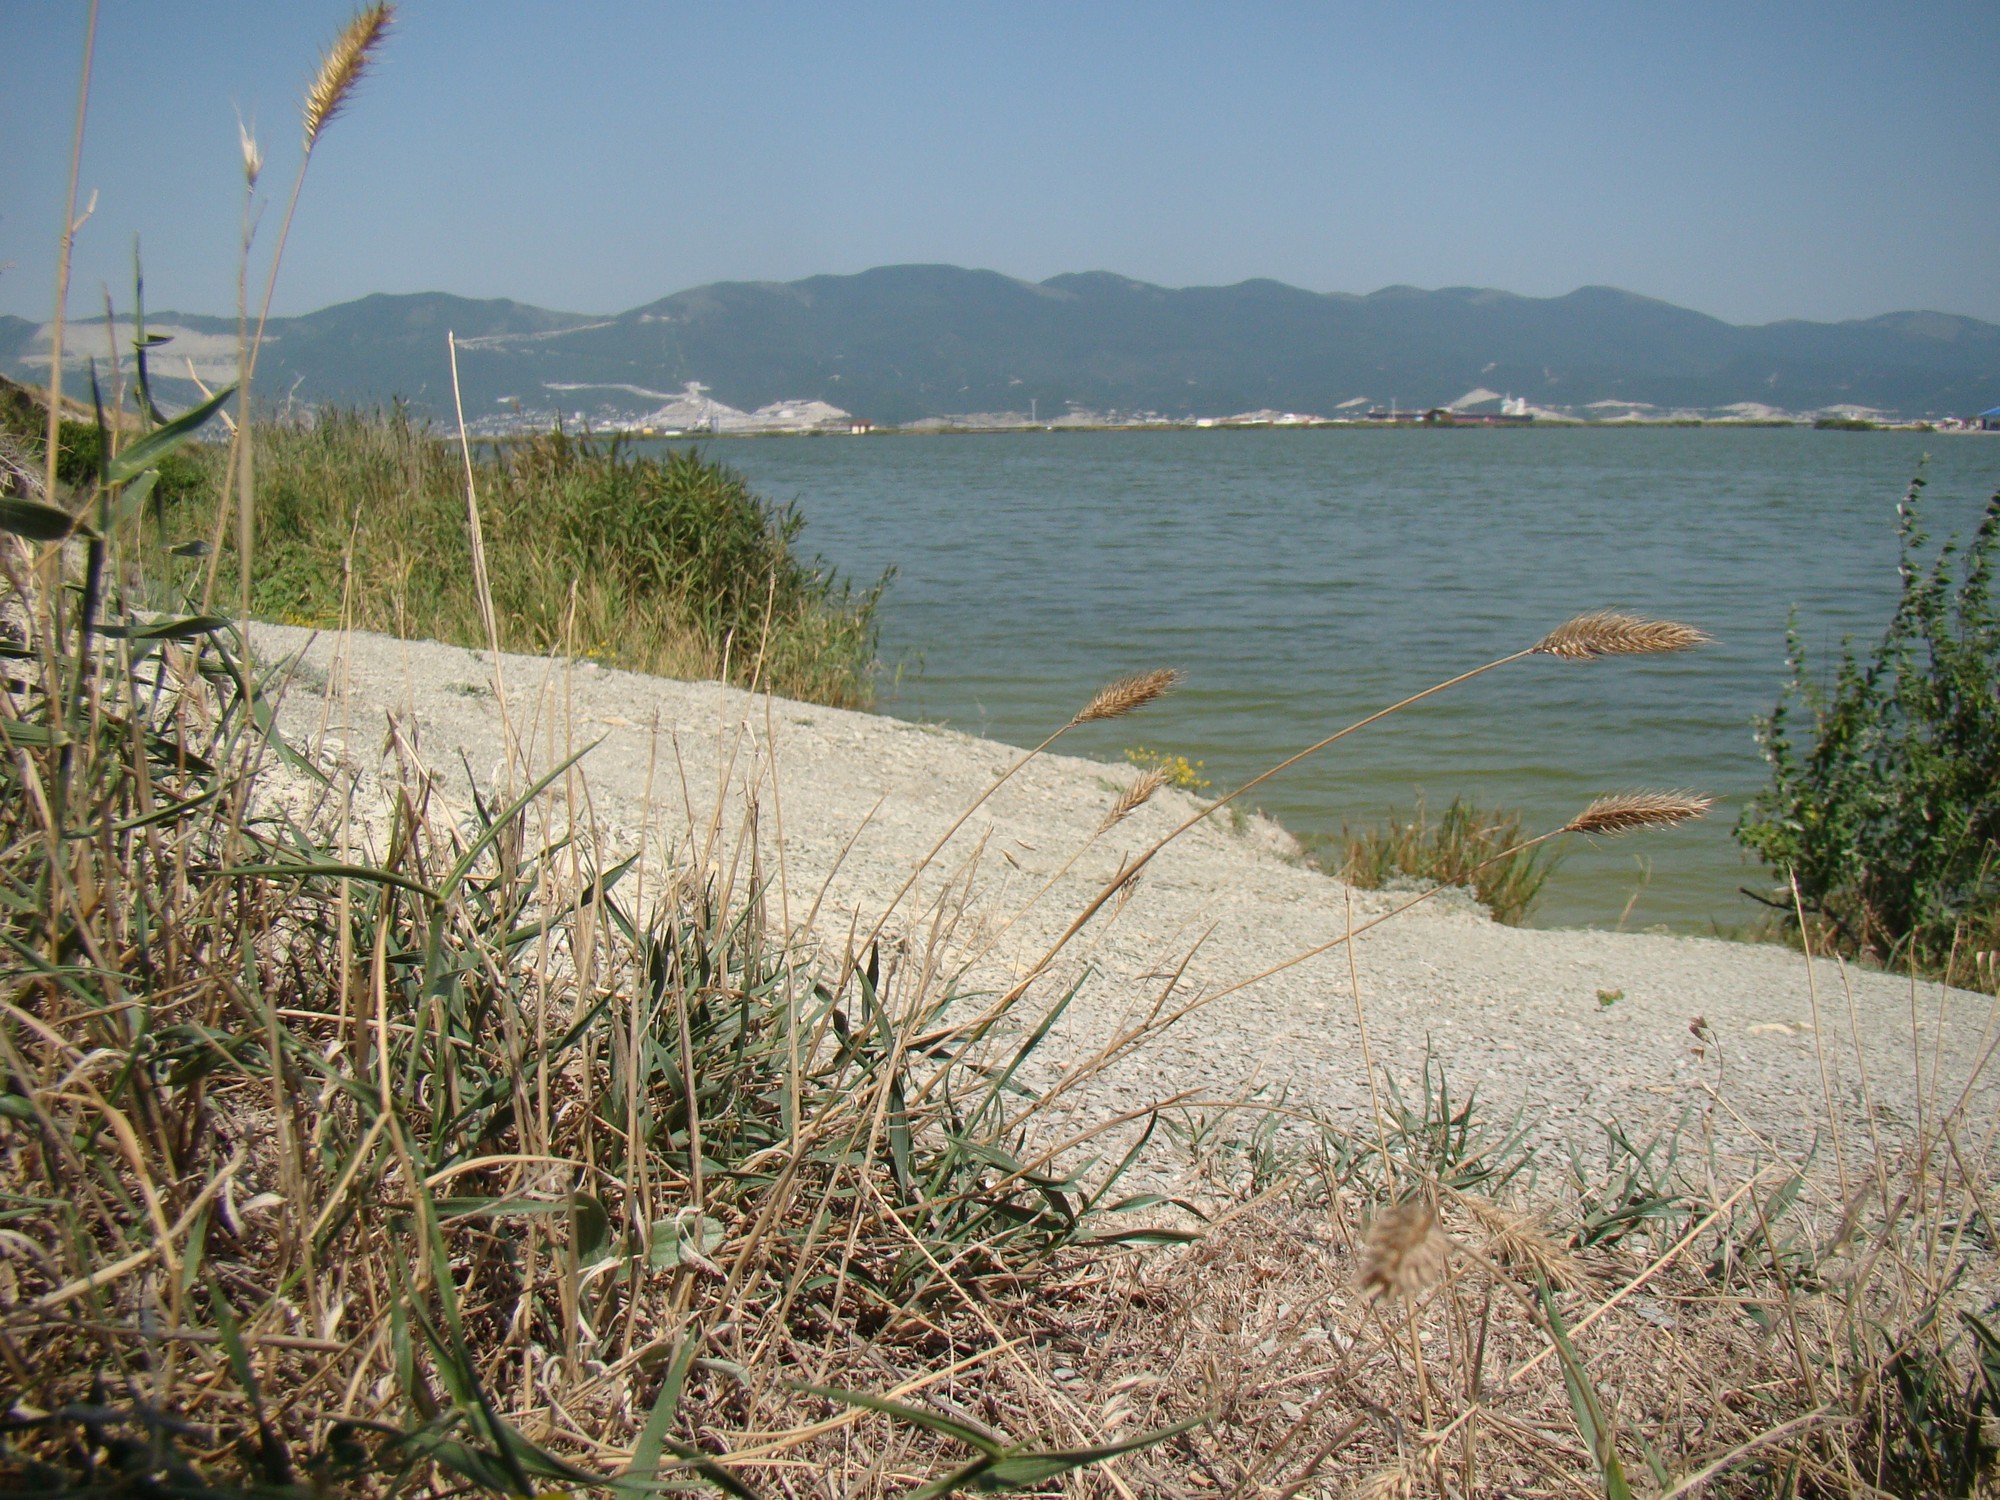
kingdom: Plantae
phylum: Tracheophyta
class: Liliopsida
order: Poales
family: Poaceae
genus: Agropyron
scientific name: Agropyron cristatum
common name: Crested wheatgrass
